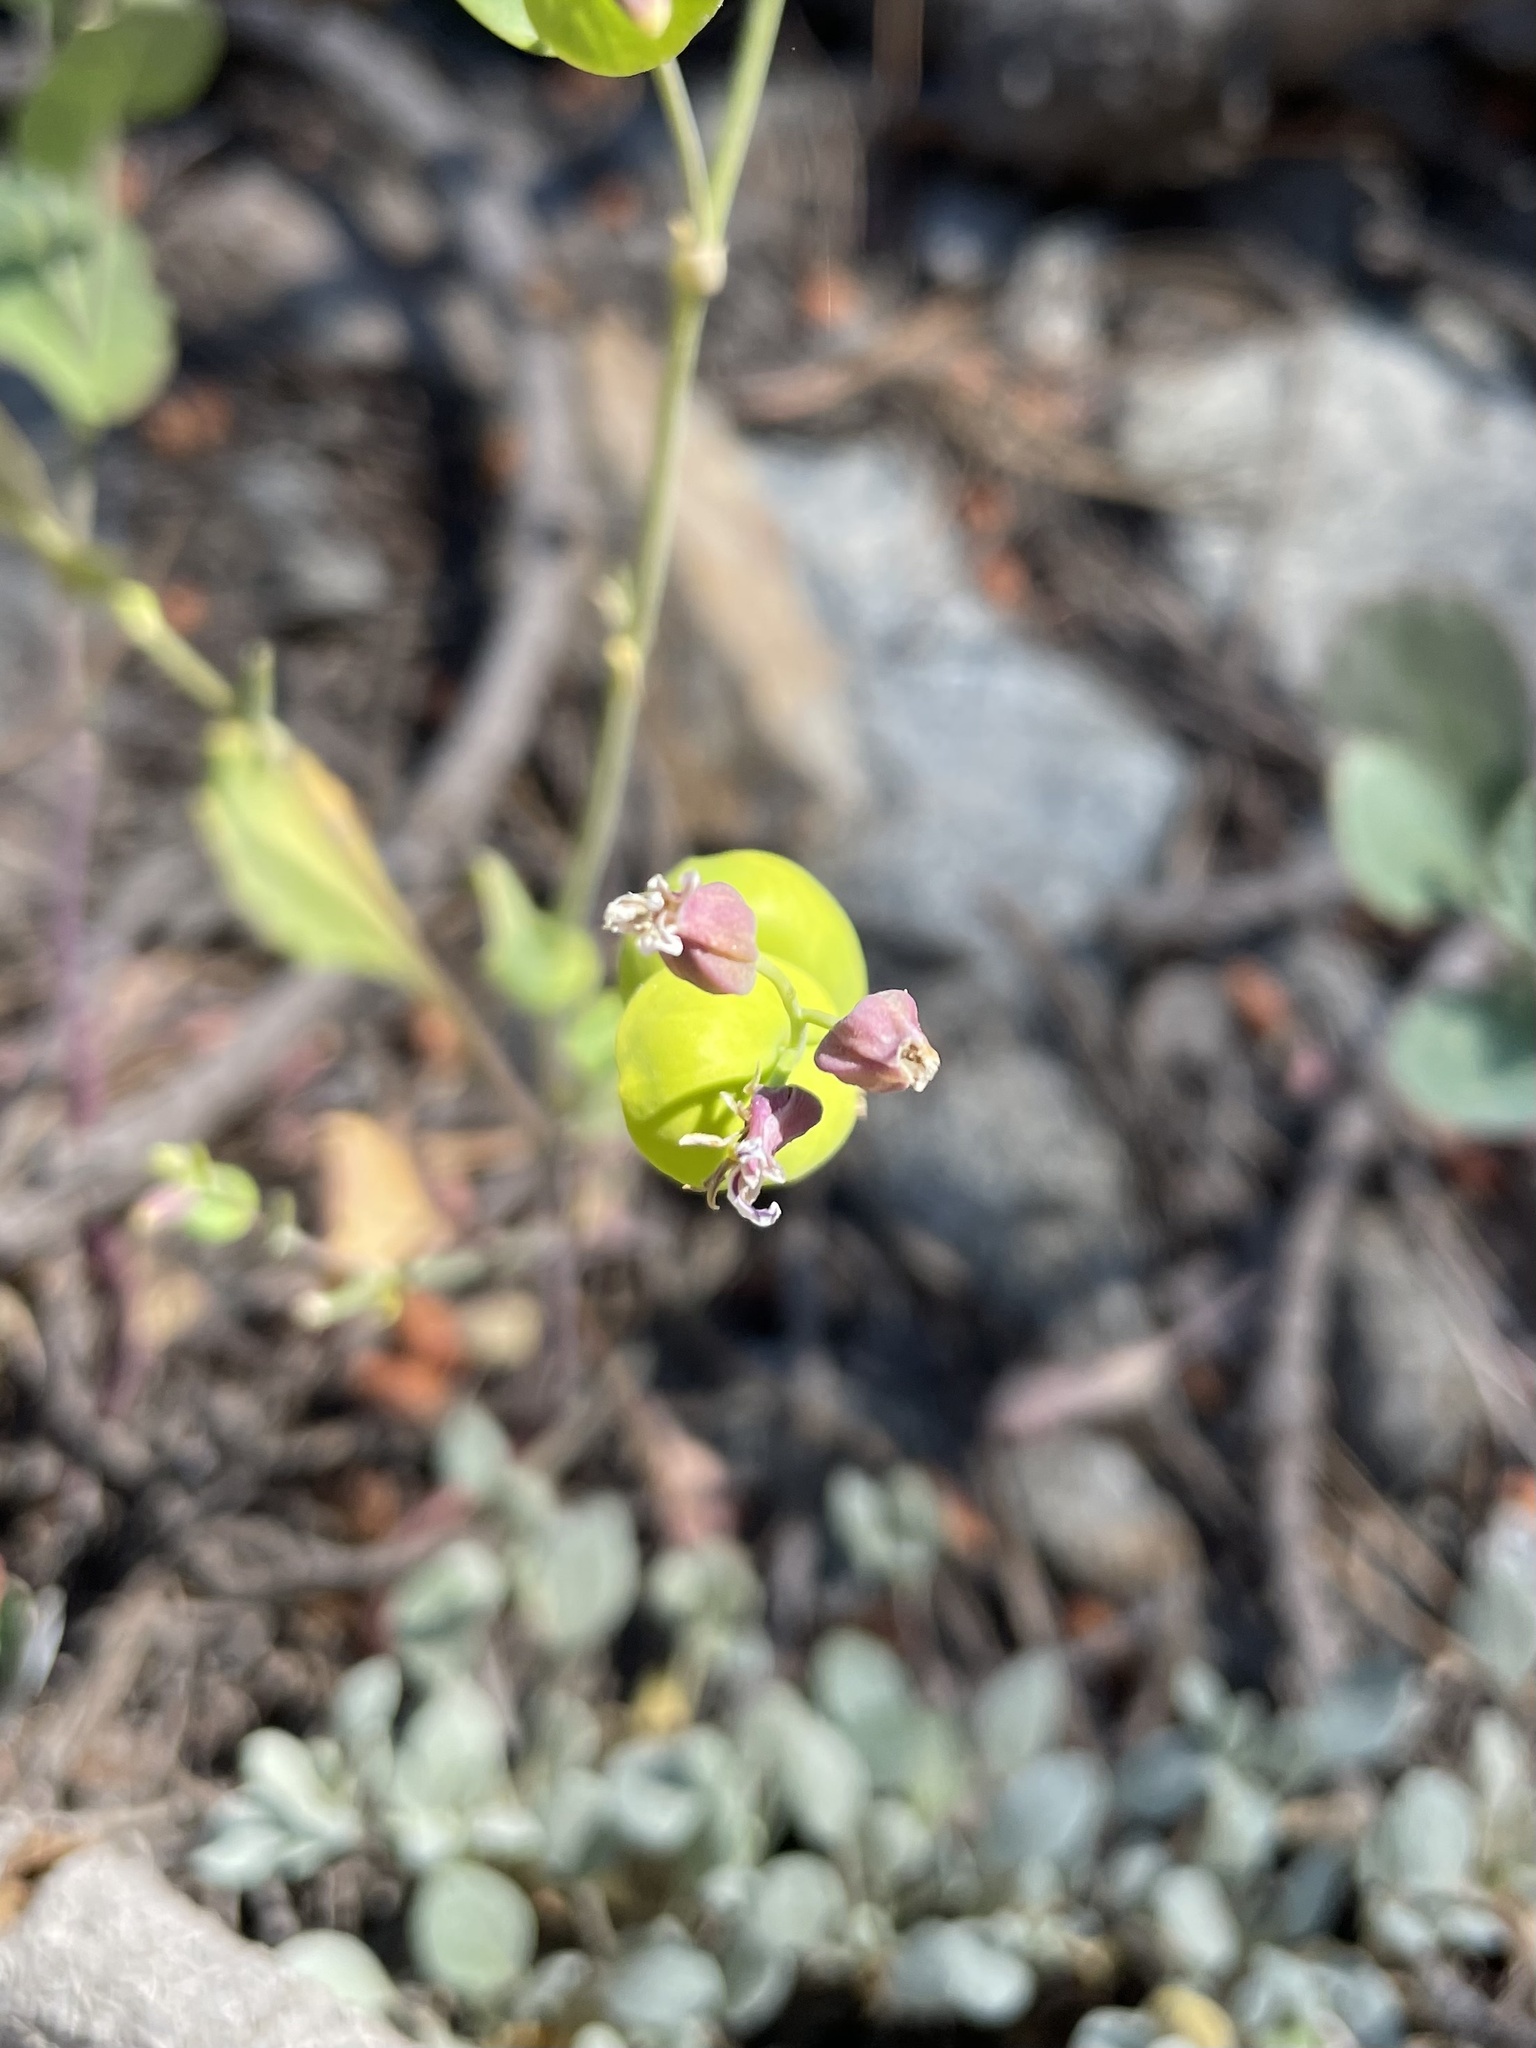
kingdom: Plantae
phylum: Tracheophyta
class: Magnoliopsida
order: Brassicales
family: Brassicaceae
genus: Streptanthus
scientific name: Streptanthus tortuosus
